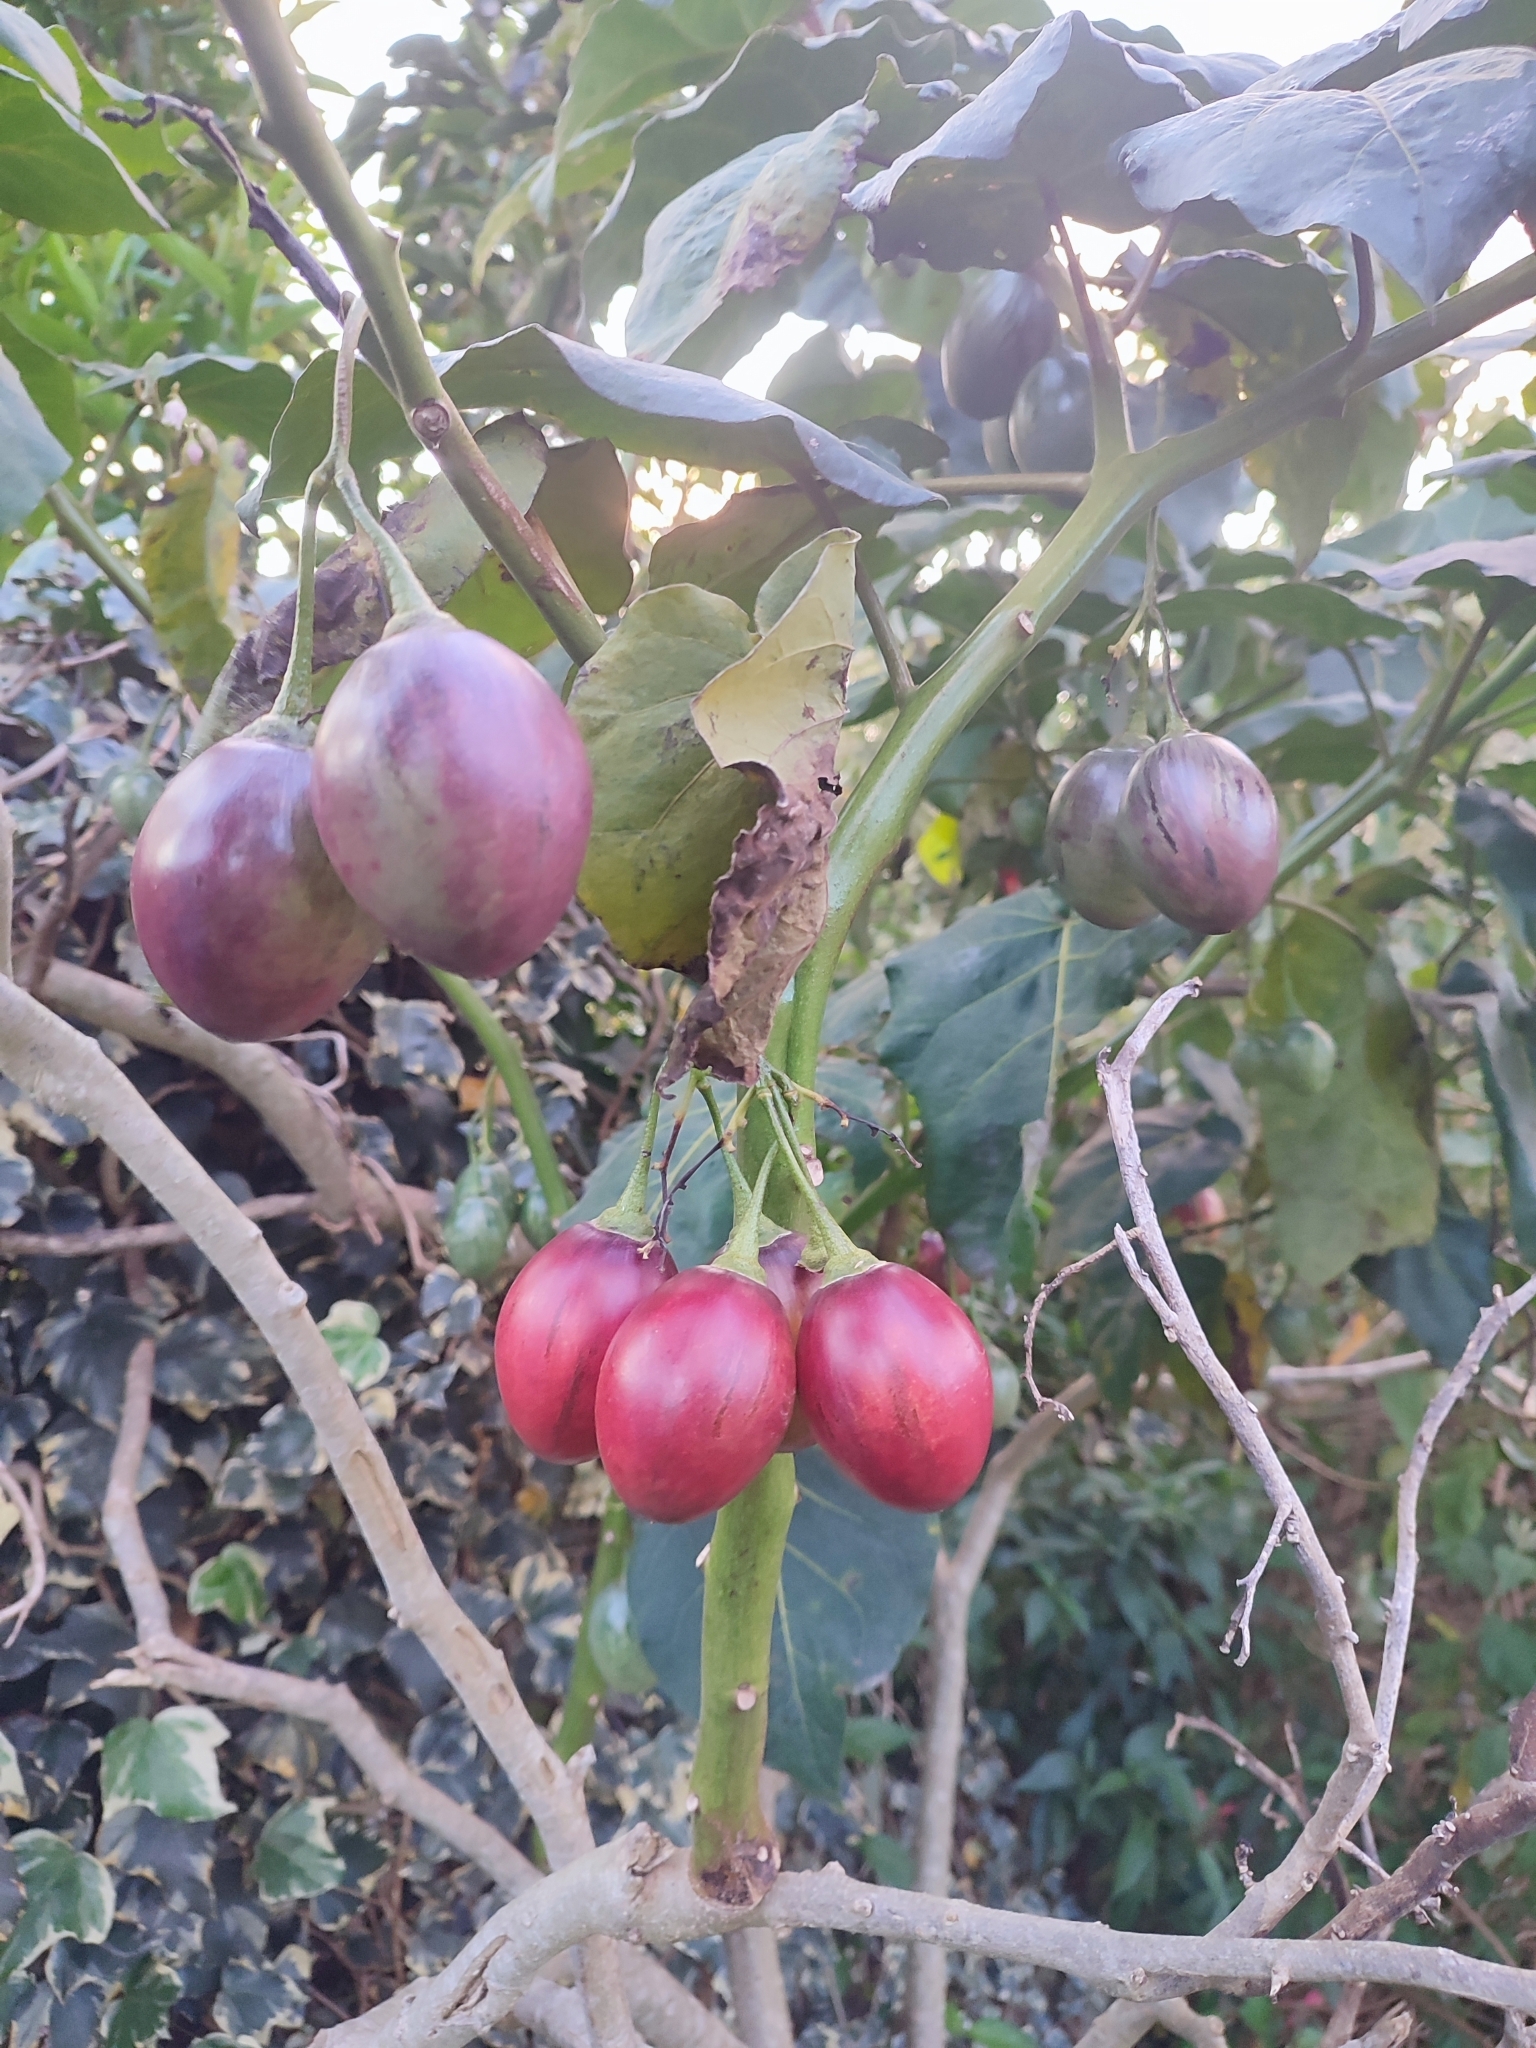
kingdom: Plantae
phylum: Tracheophyta
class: Magnoliopsida
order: Solanales
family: Solanaceae
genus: Solanum
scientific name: Solanum betaceum
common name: Tamarillo
